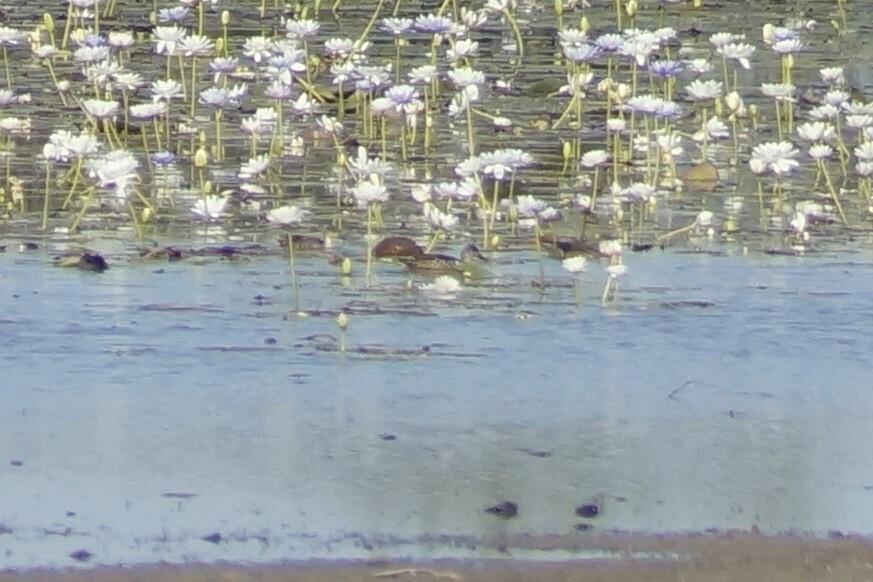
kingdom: Animalia
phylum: Chordata
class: Aves
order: Anseriformes
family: Anatidae
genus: Anas
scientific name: Anas gracilis
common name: Grey teal
